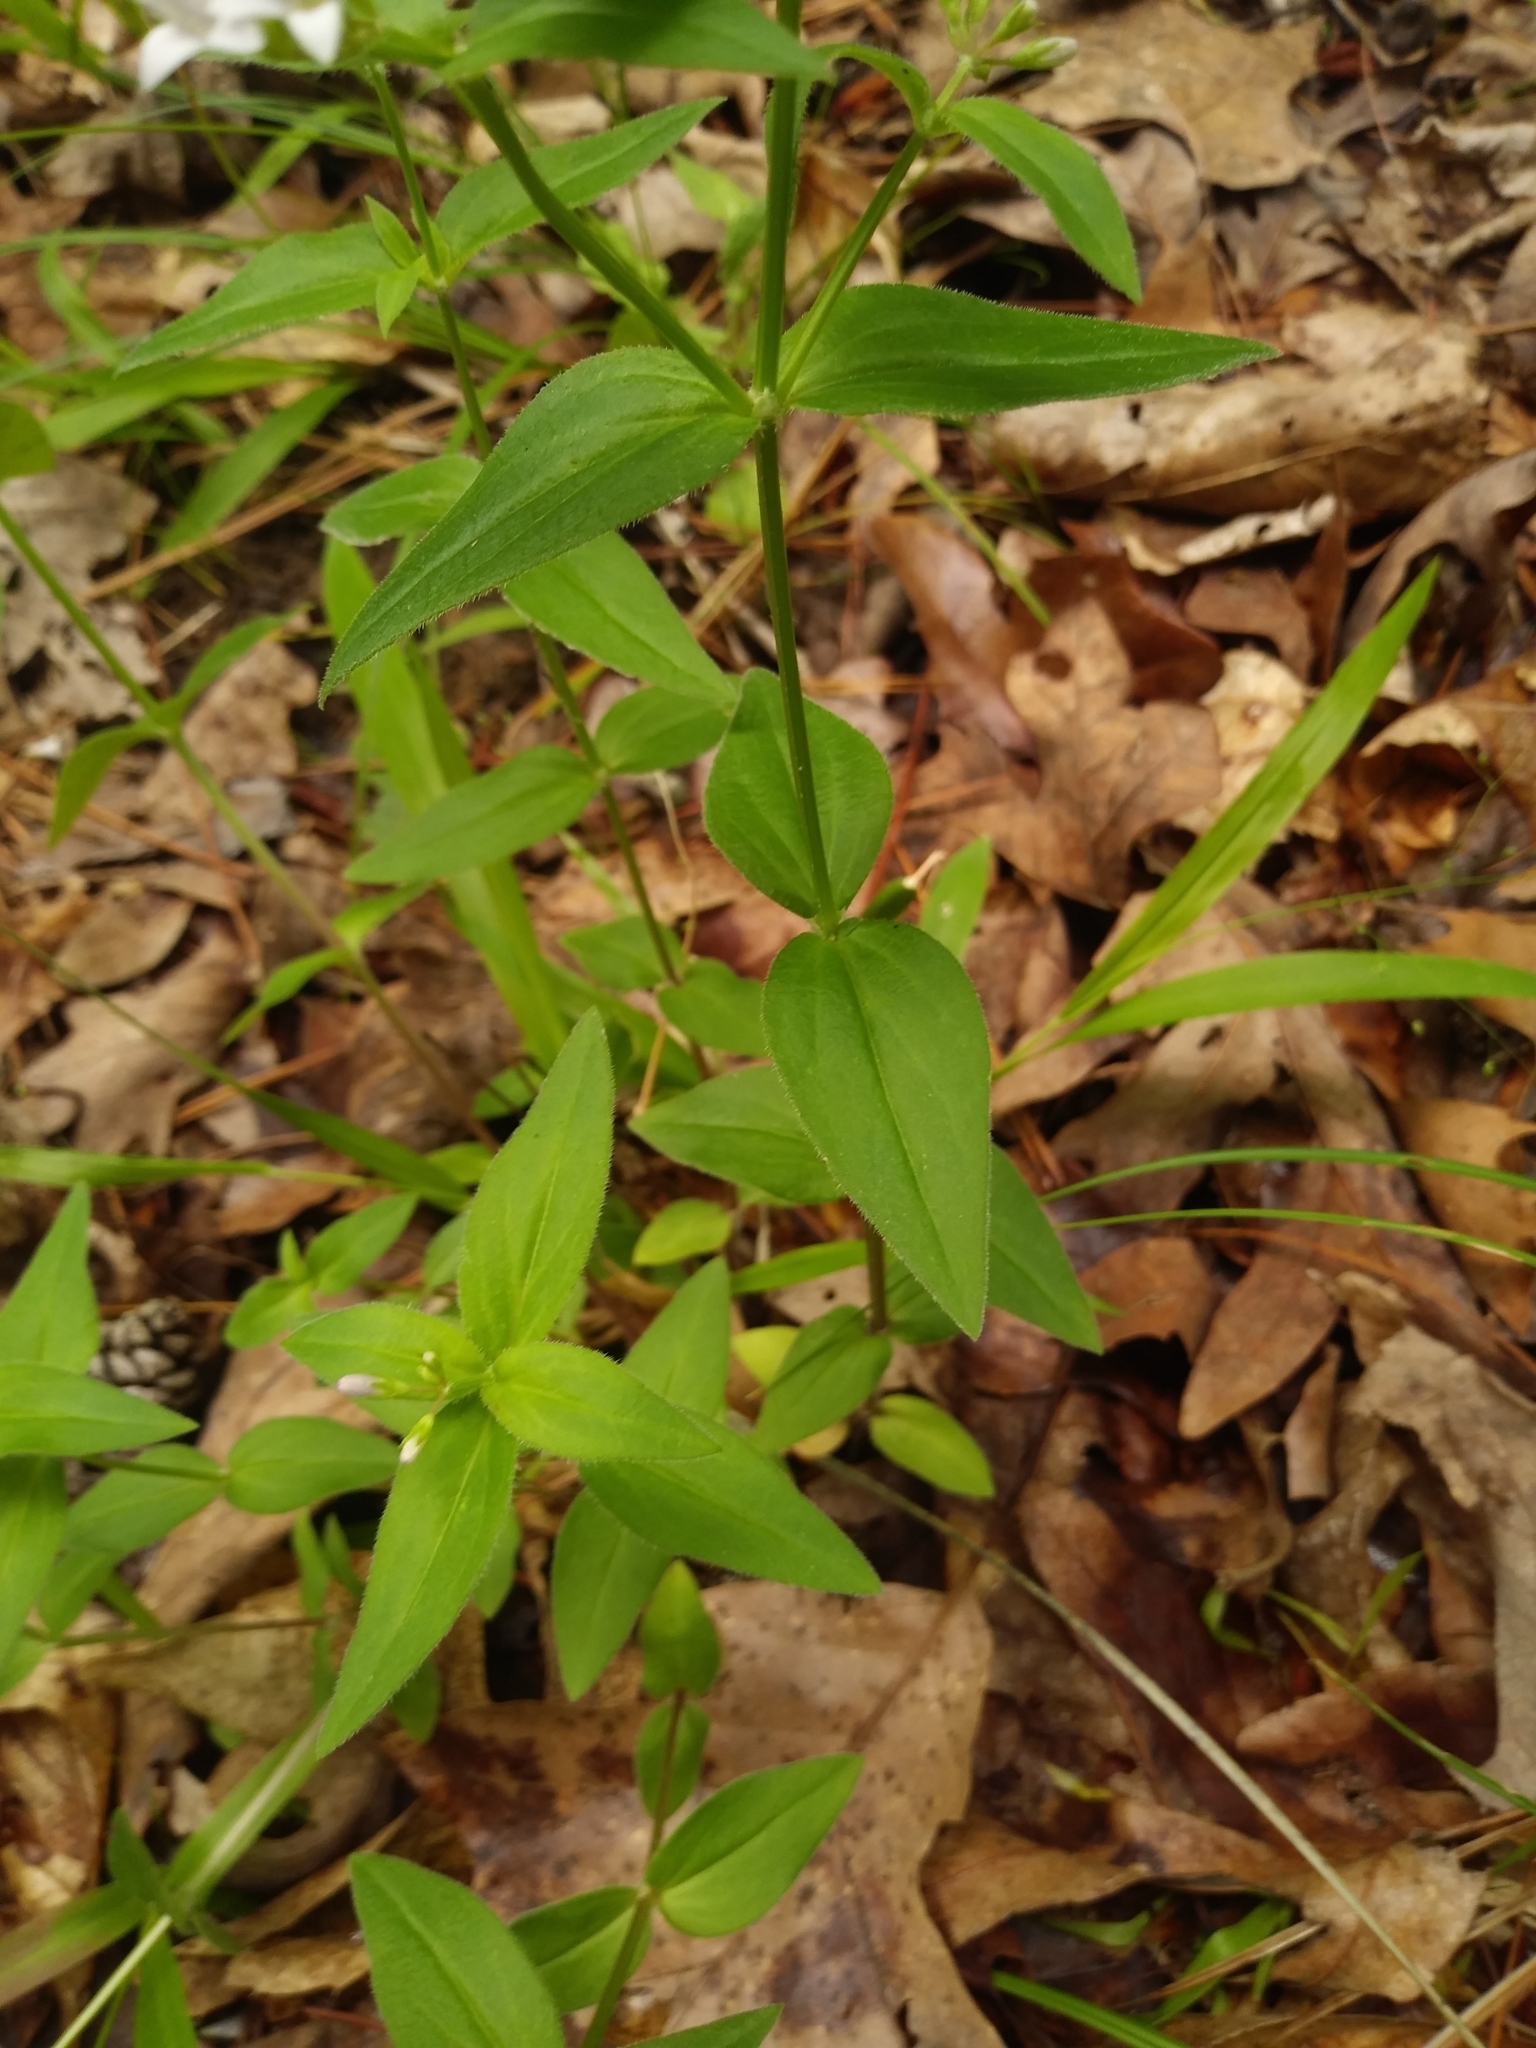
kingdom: Plantae
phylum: Tracheophyta
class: Magnoliopsida
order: Gentianales
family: Rubiaceae
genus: Houstonia
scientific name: Houstonia purpurea
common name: Summer bluet
